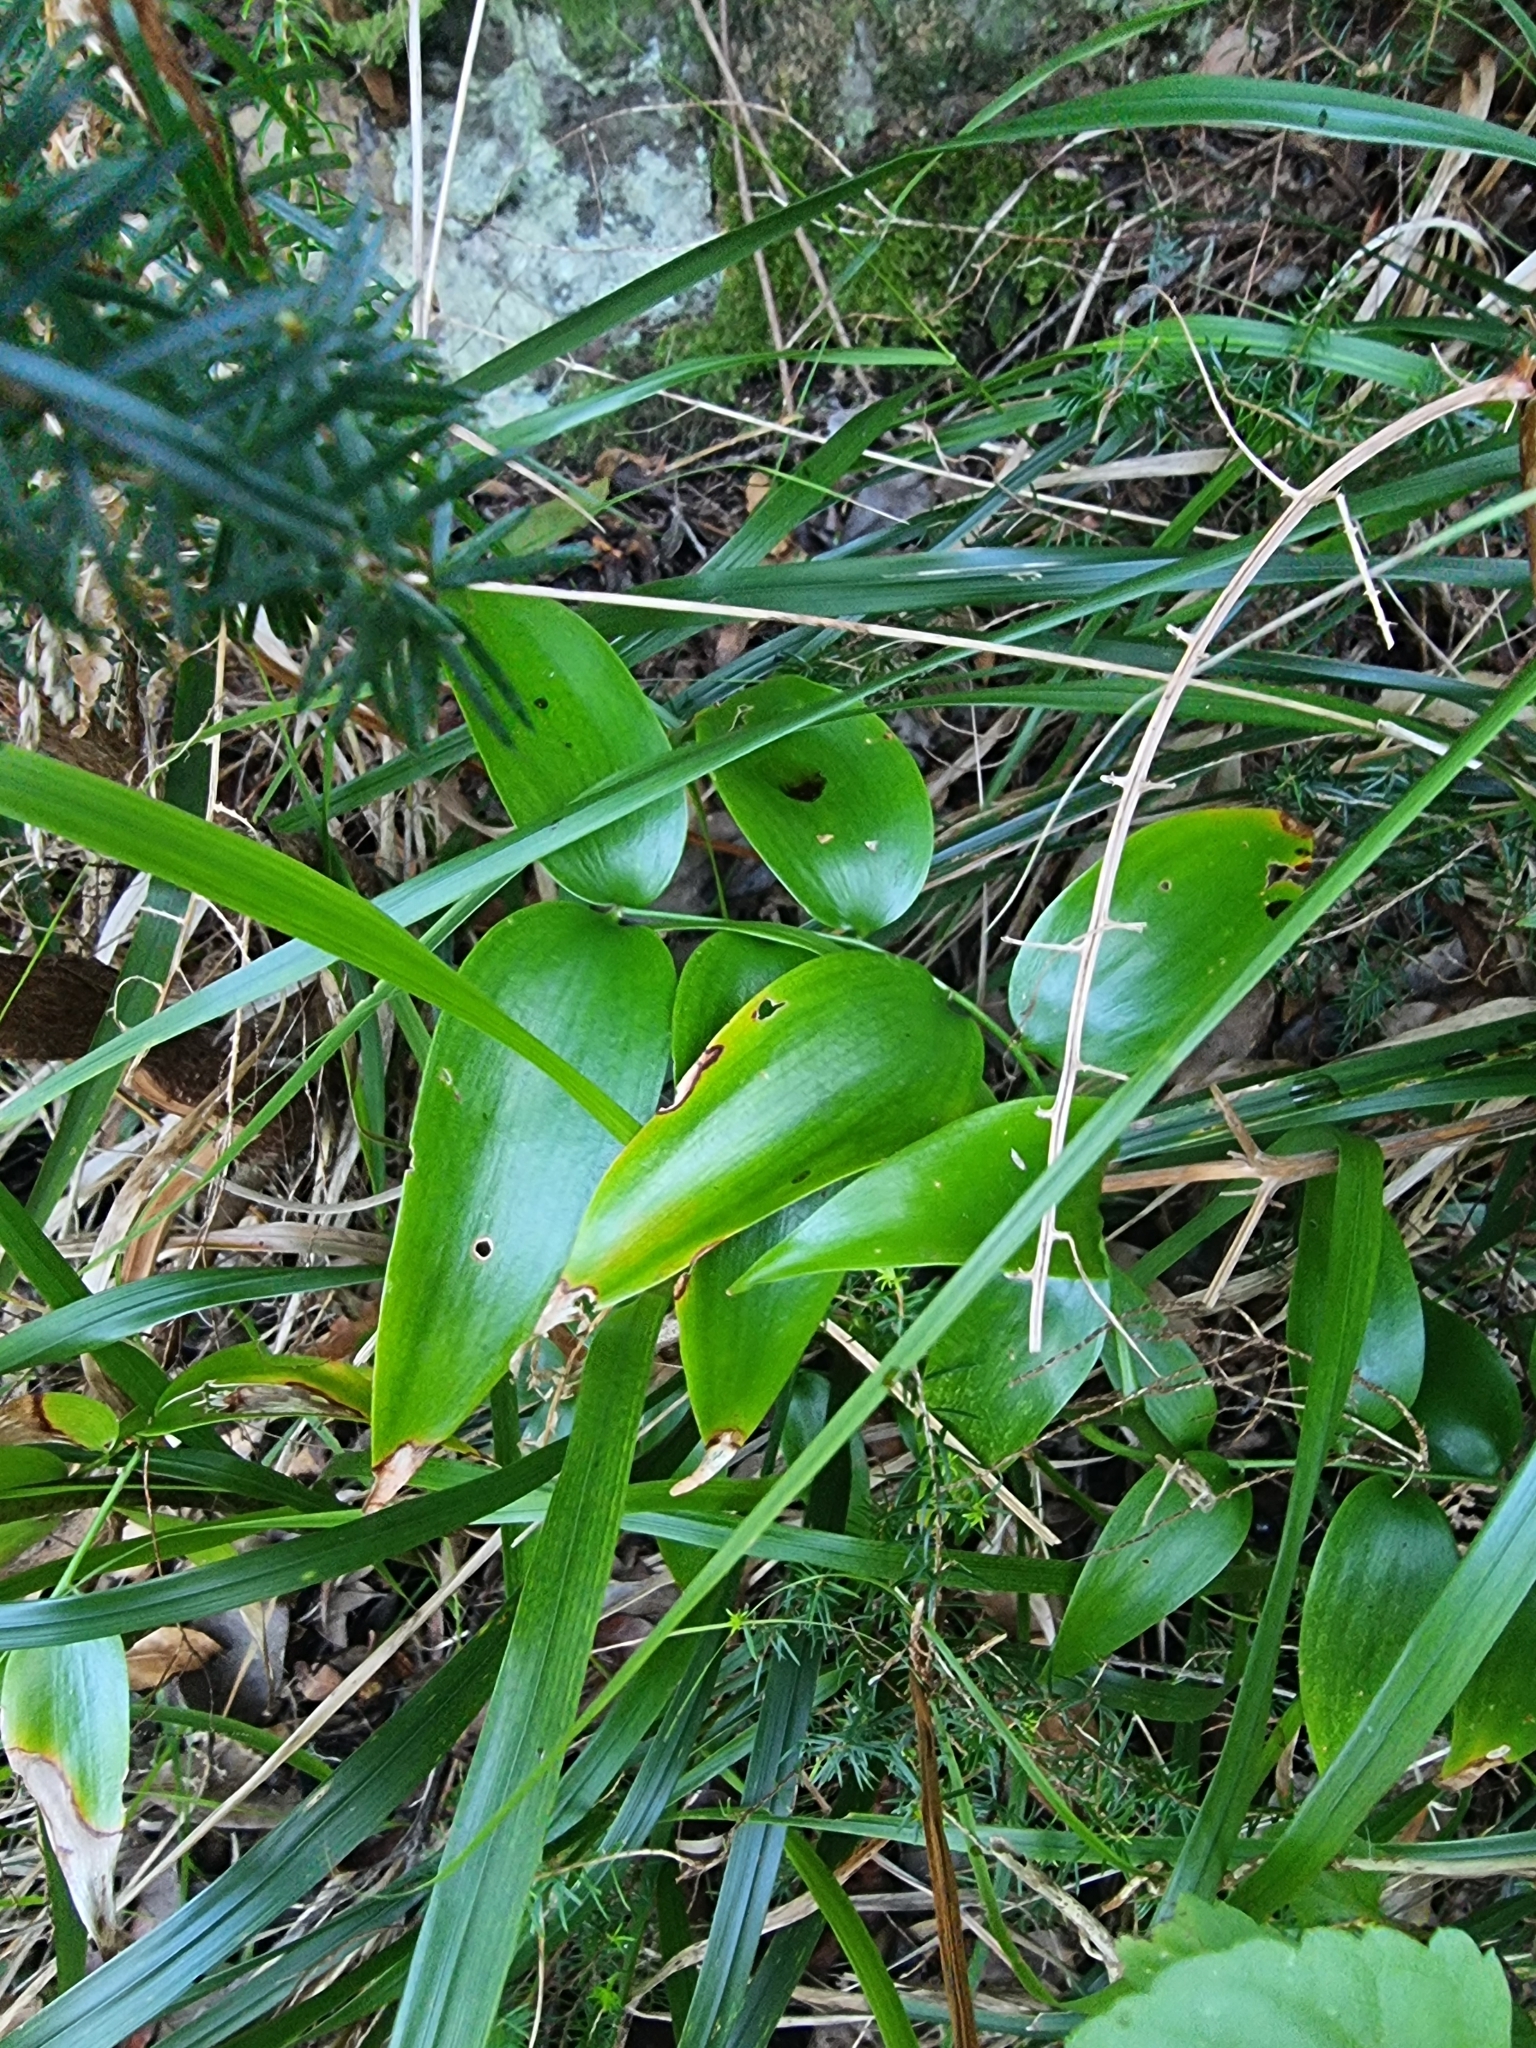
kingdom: Plantae
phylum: Tracheophyta
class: Liliopsida
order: Asparagales
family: Asparagaceae
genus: Semele
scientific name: Semele androgyna
